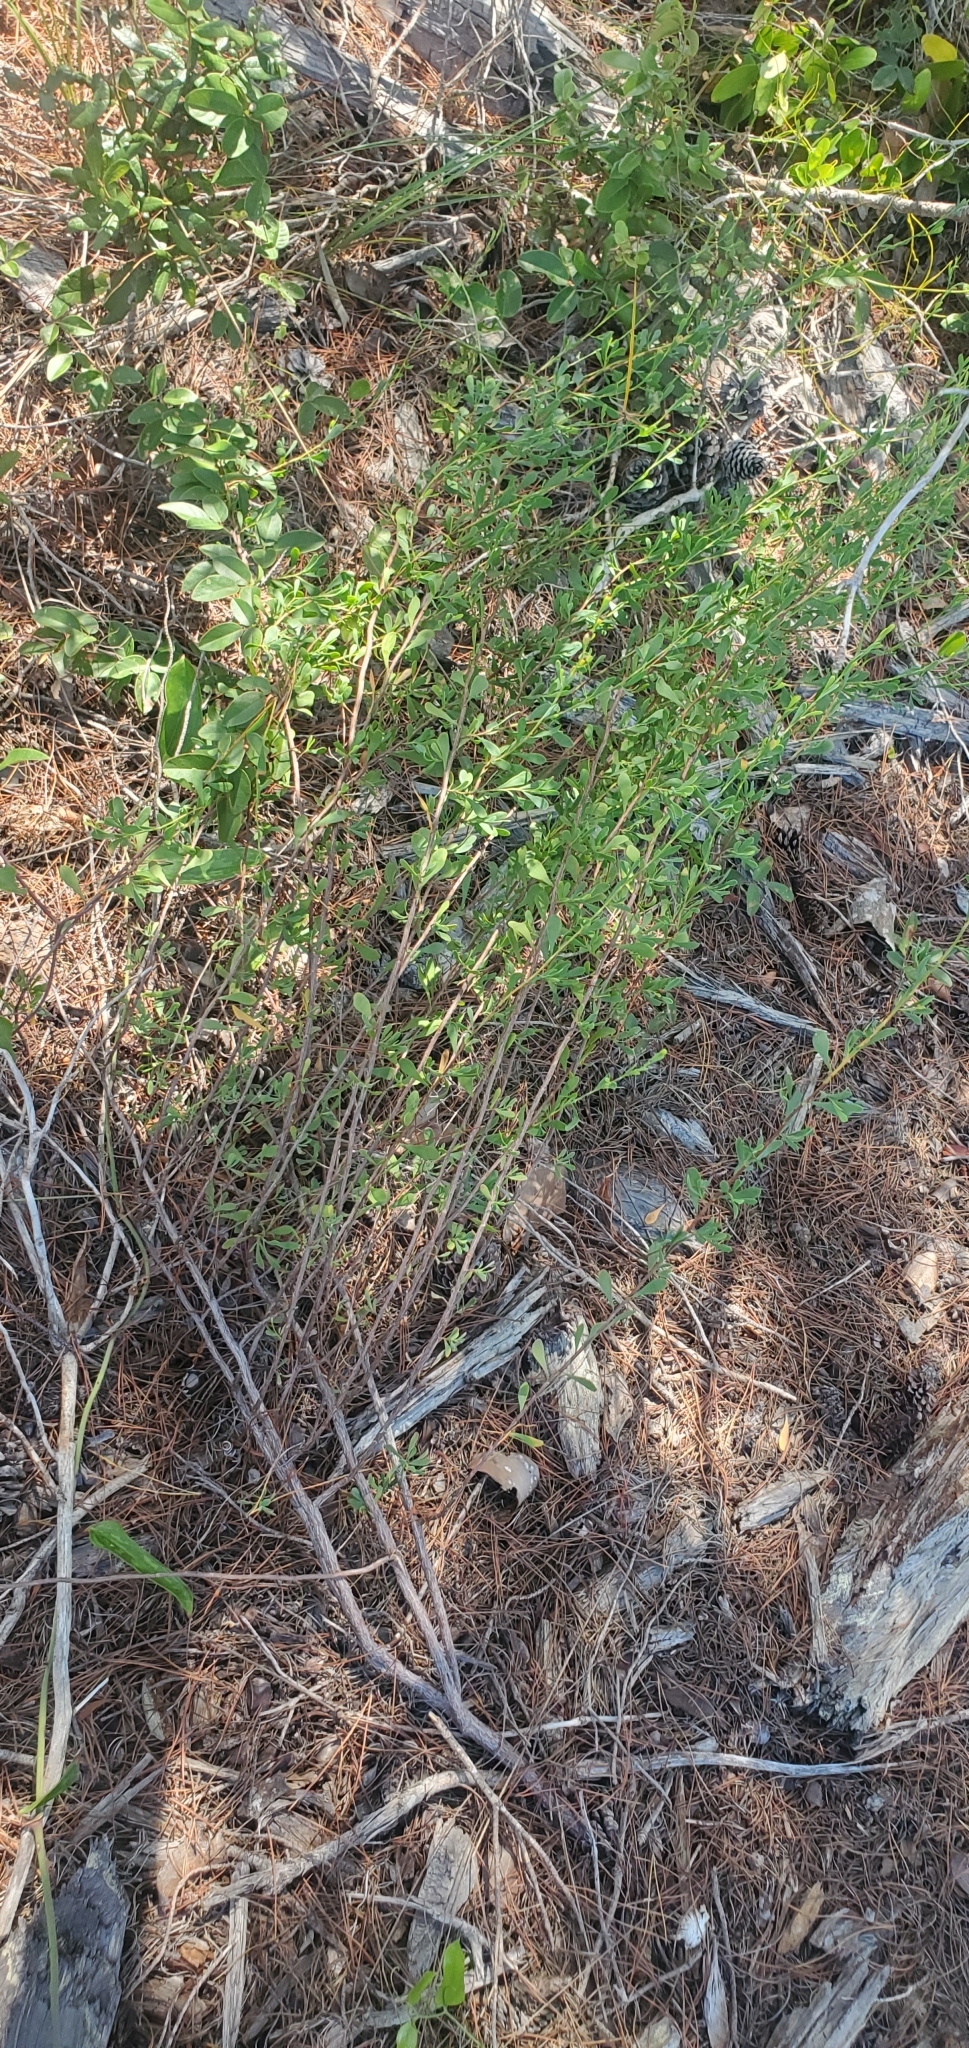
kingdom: Plantae
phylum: Tracheophyta
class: Magnoliopsida
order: Caryophyllales
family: Polygonaceae
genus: Polygonella
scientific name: Polygonella polygama
